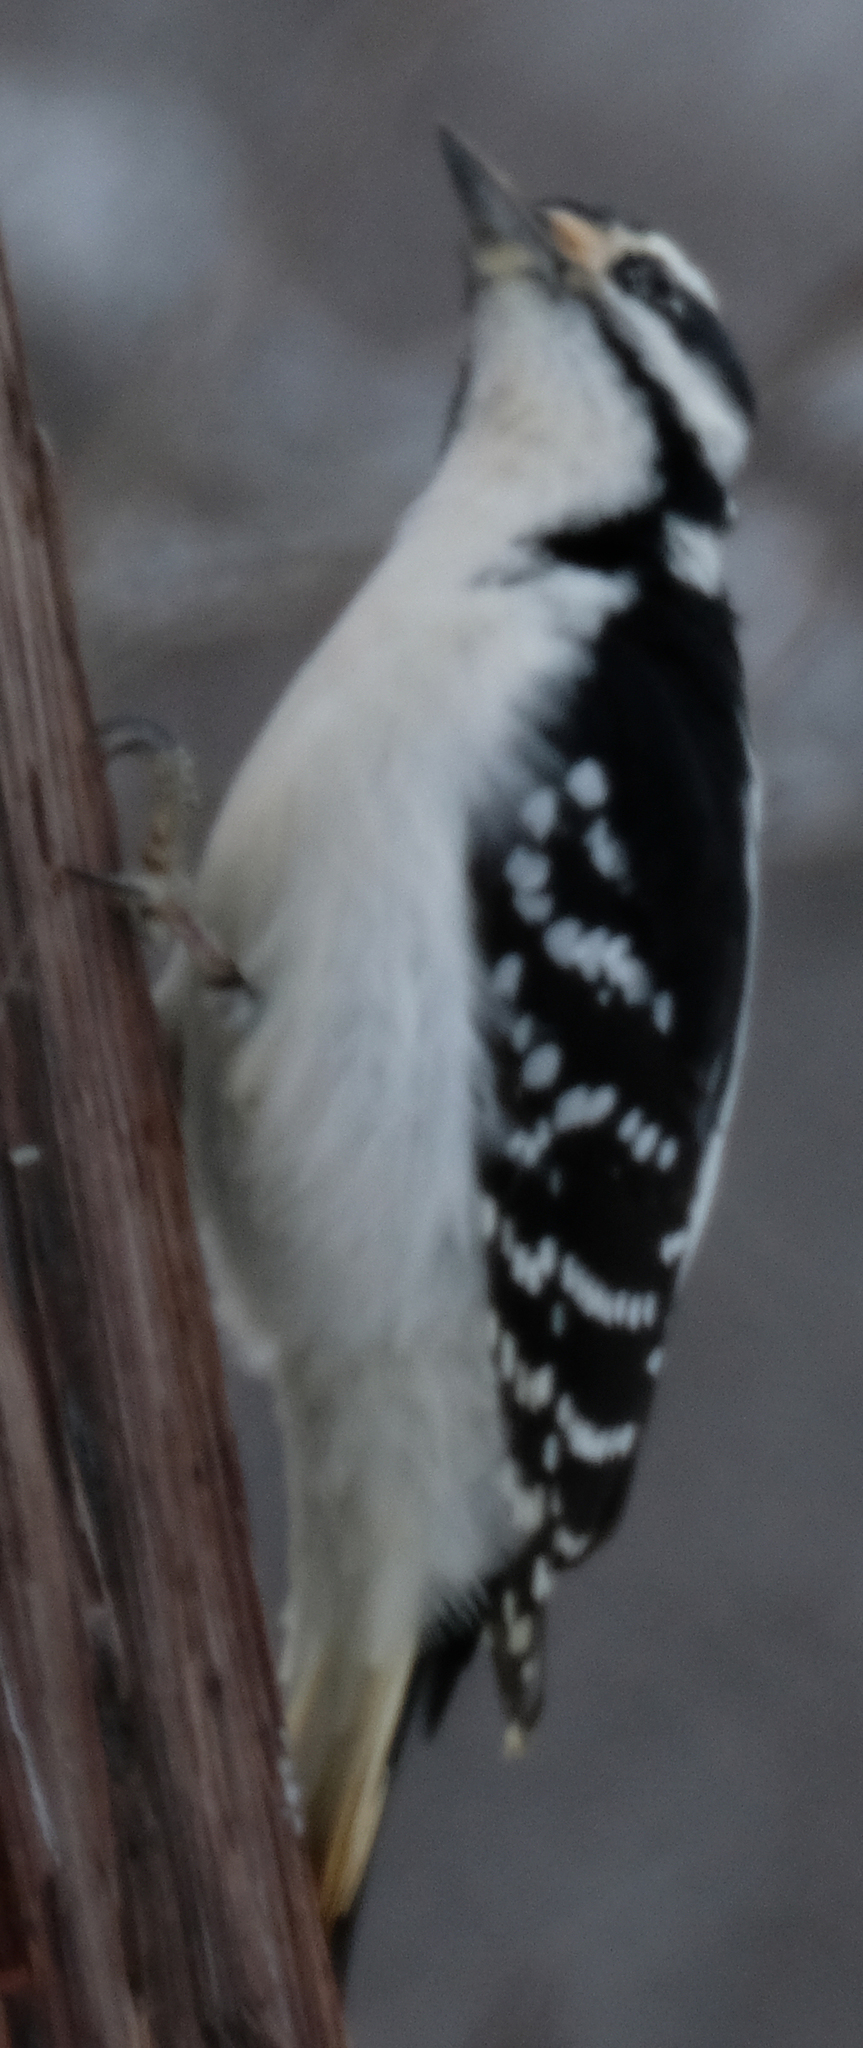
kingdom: Animalia
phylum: Chordata
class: Aves
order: Piciformes
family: Picidae
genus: Leuconotopicus
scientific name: Leuconotopicus villosus
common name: Hairy woodpecker
